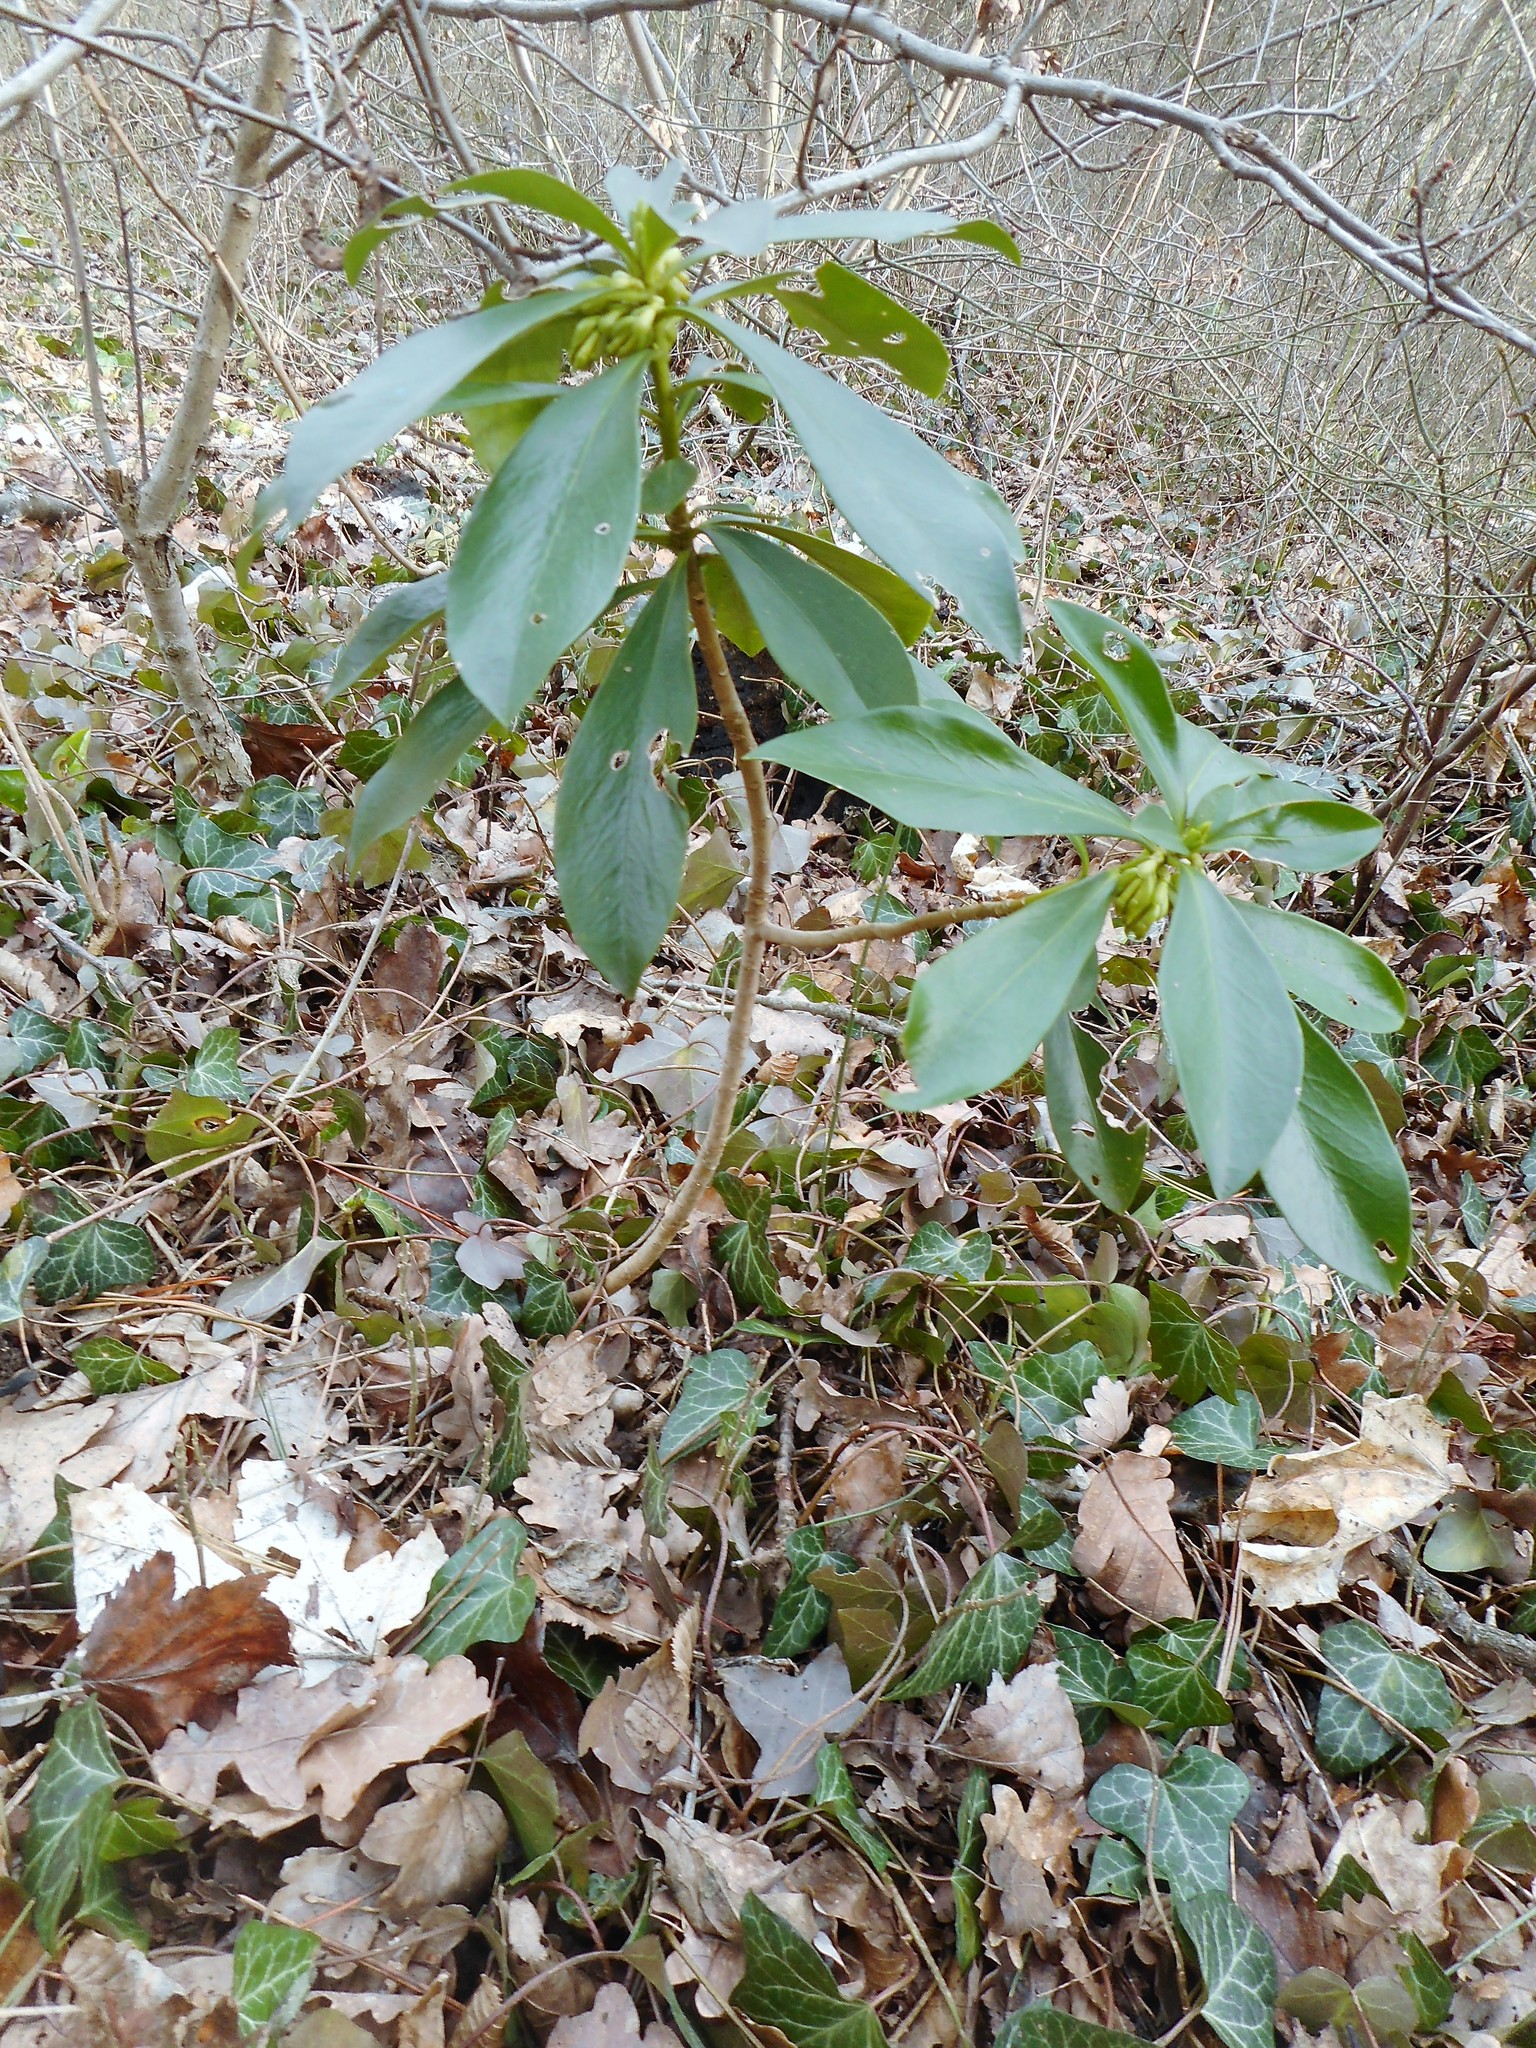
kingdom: Plantae
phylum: Tracheophyta
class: Magnoliopsida
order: Malvales
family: Thymelaeaceae
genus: Daphne
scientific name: Daphne laureola
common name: Spurge-laurel
